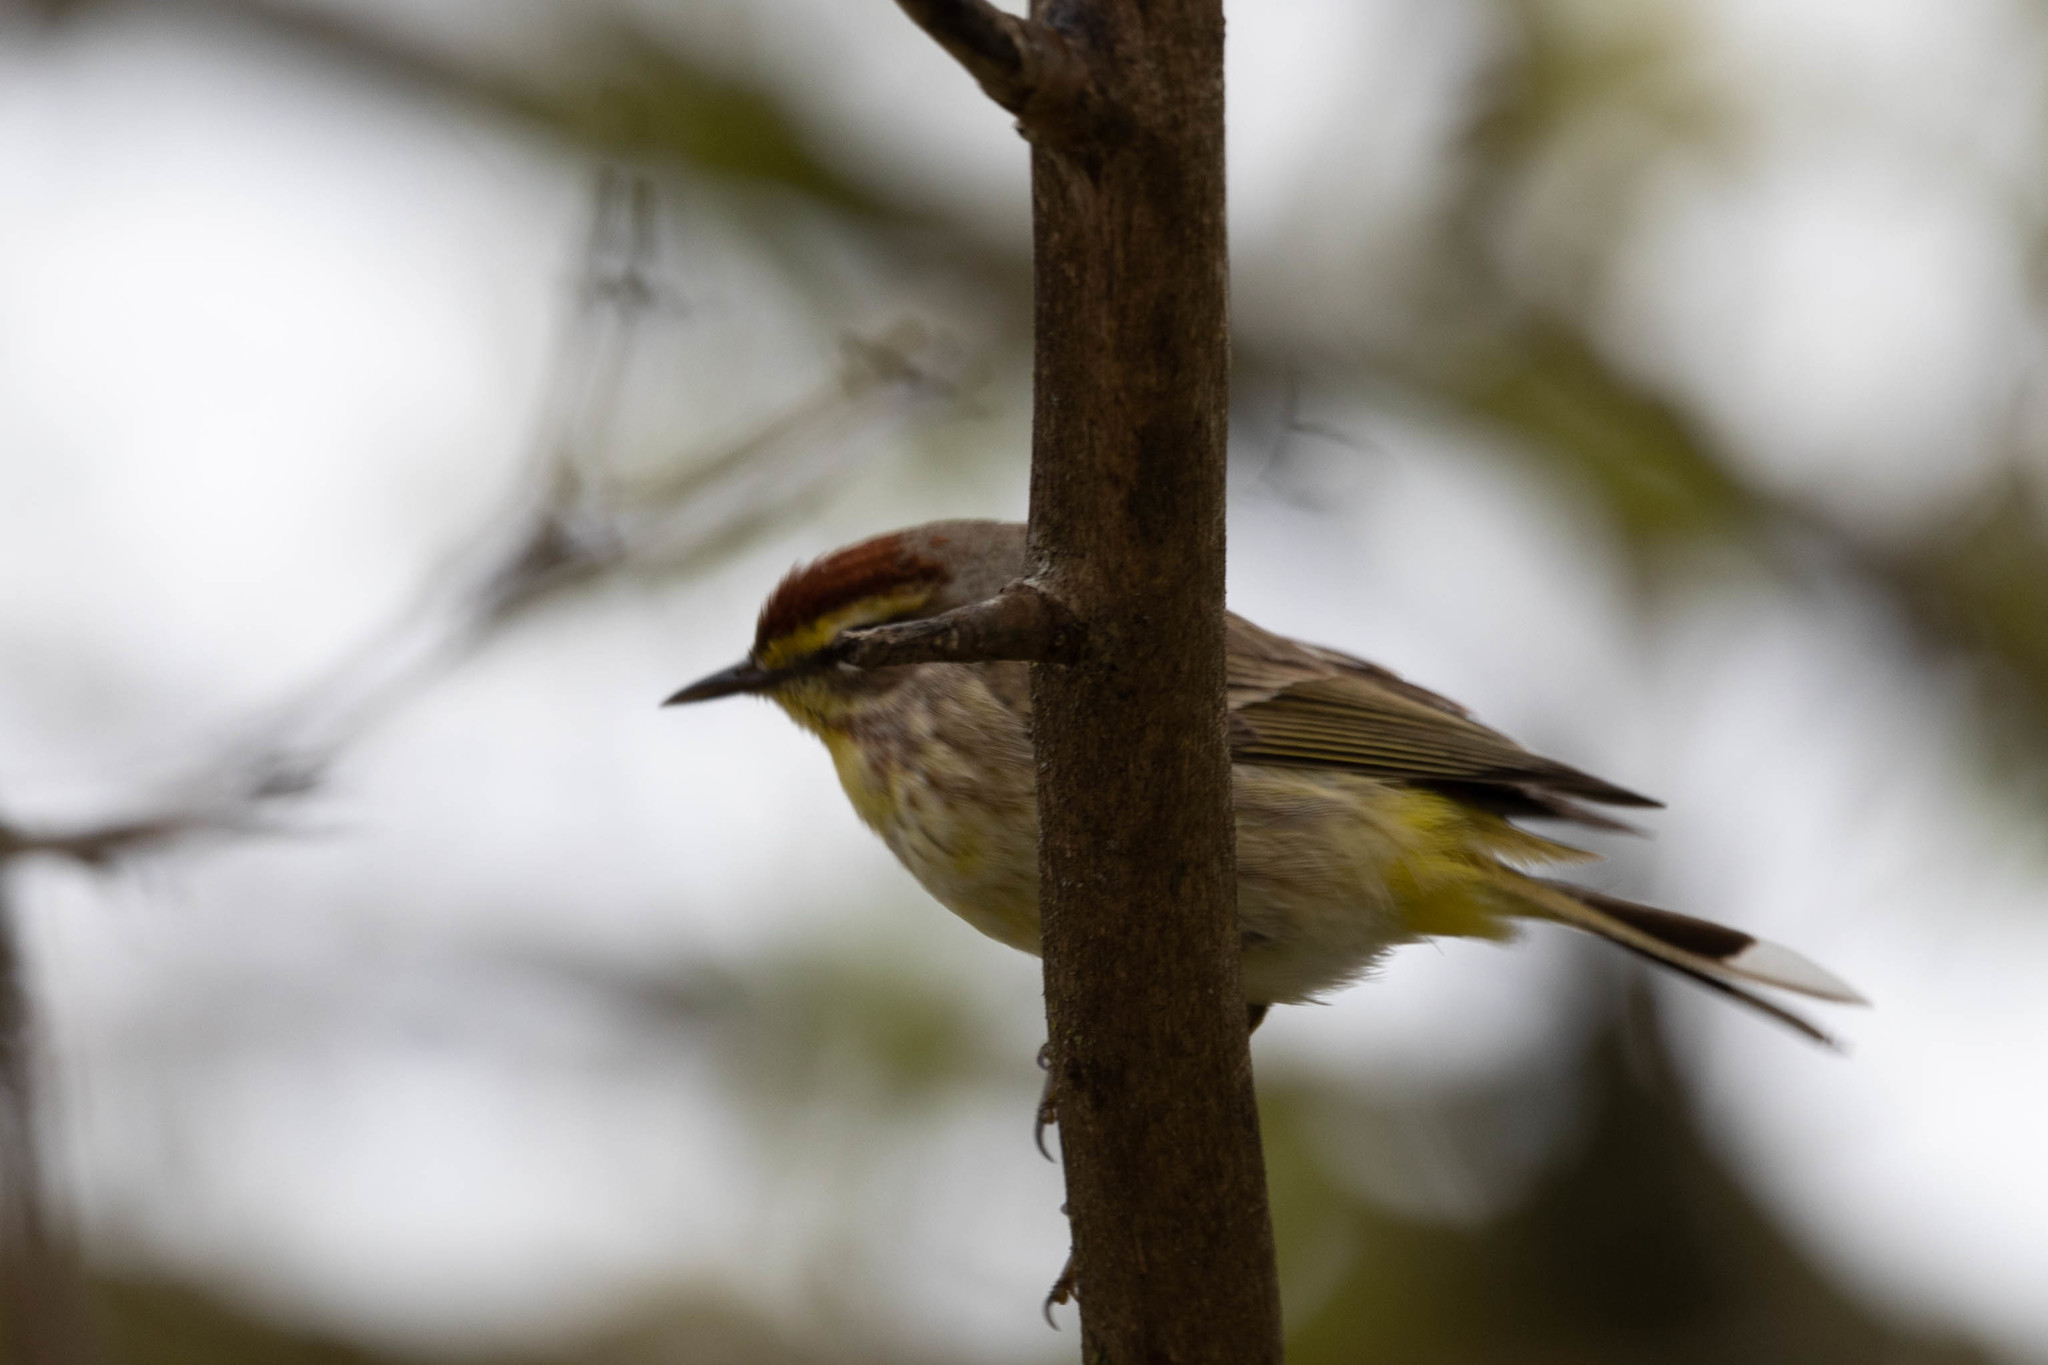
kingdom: Animalia
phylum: Chordata
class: Aves
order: Passeriformes
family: Parulidae
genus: Setophaga
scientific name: Setophaga palmarum
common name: Palm warbler
